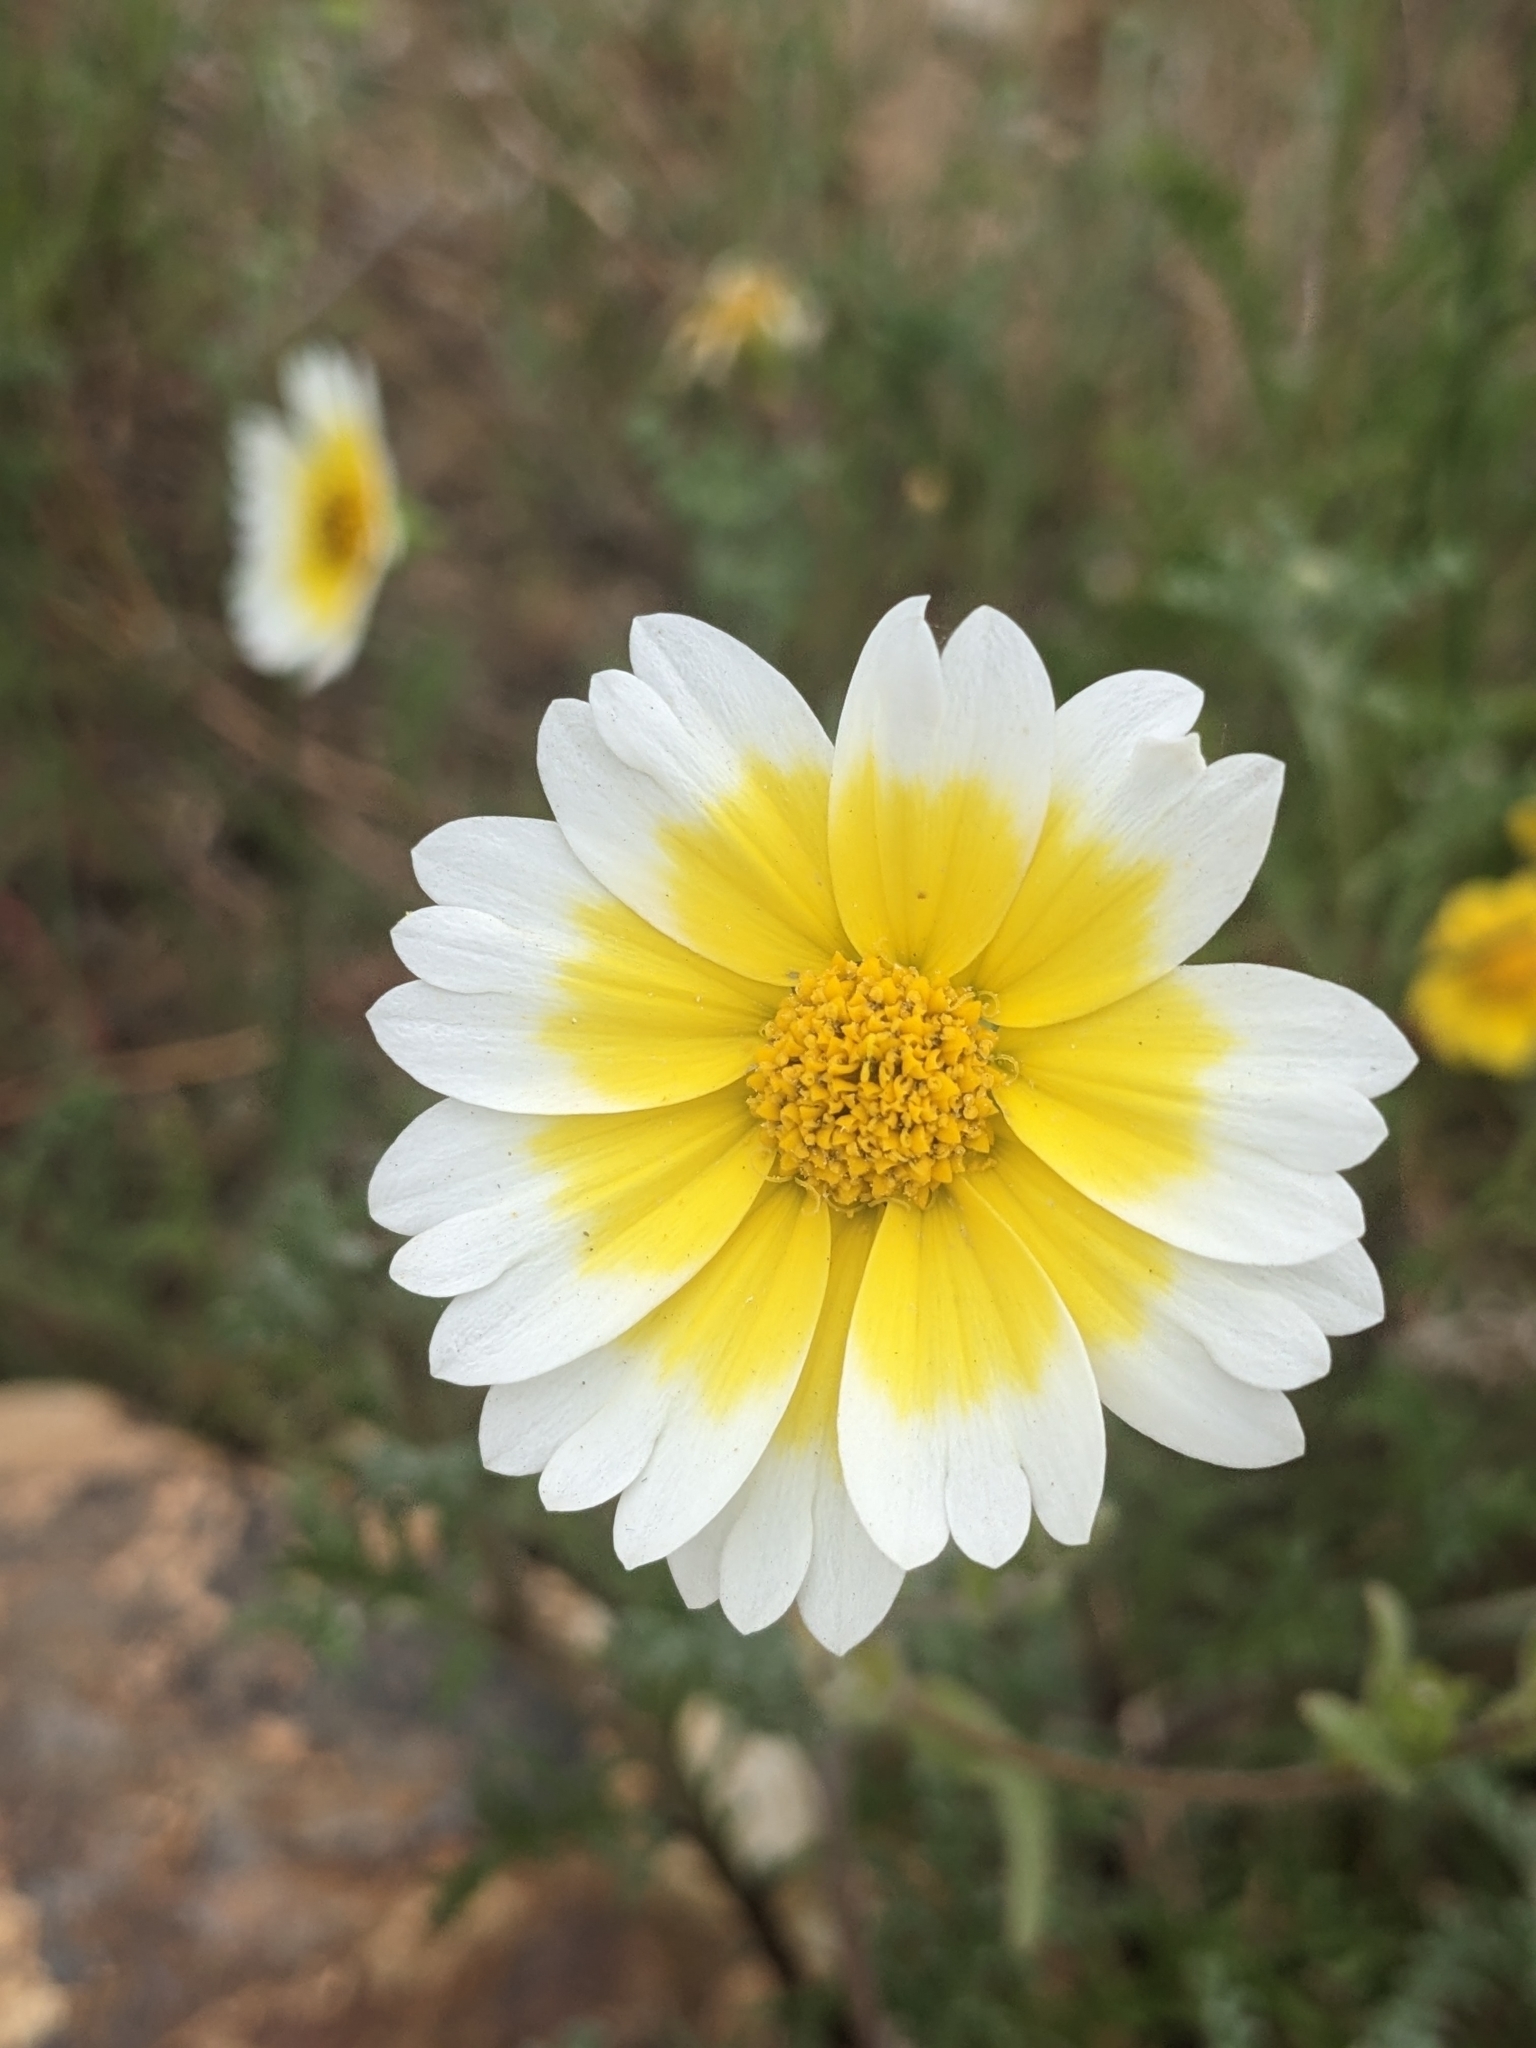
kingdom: Plantae
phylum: Tracheophyta
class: Magnoliopsida
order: Asterales
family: Asteraceae
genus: Layia
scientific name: Layia platyglossa
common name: Tidy-tips
